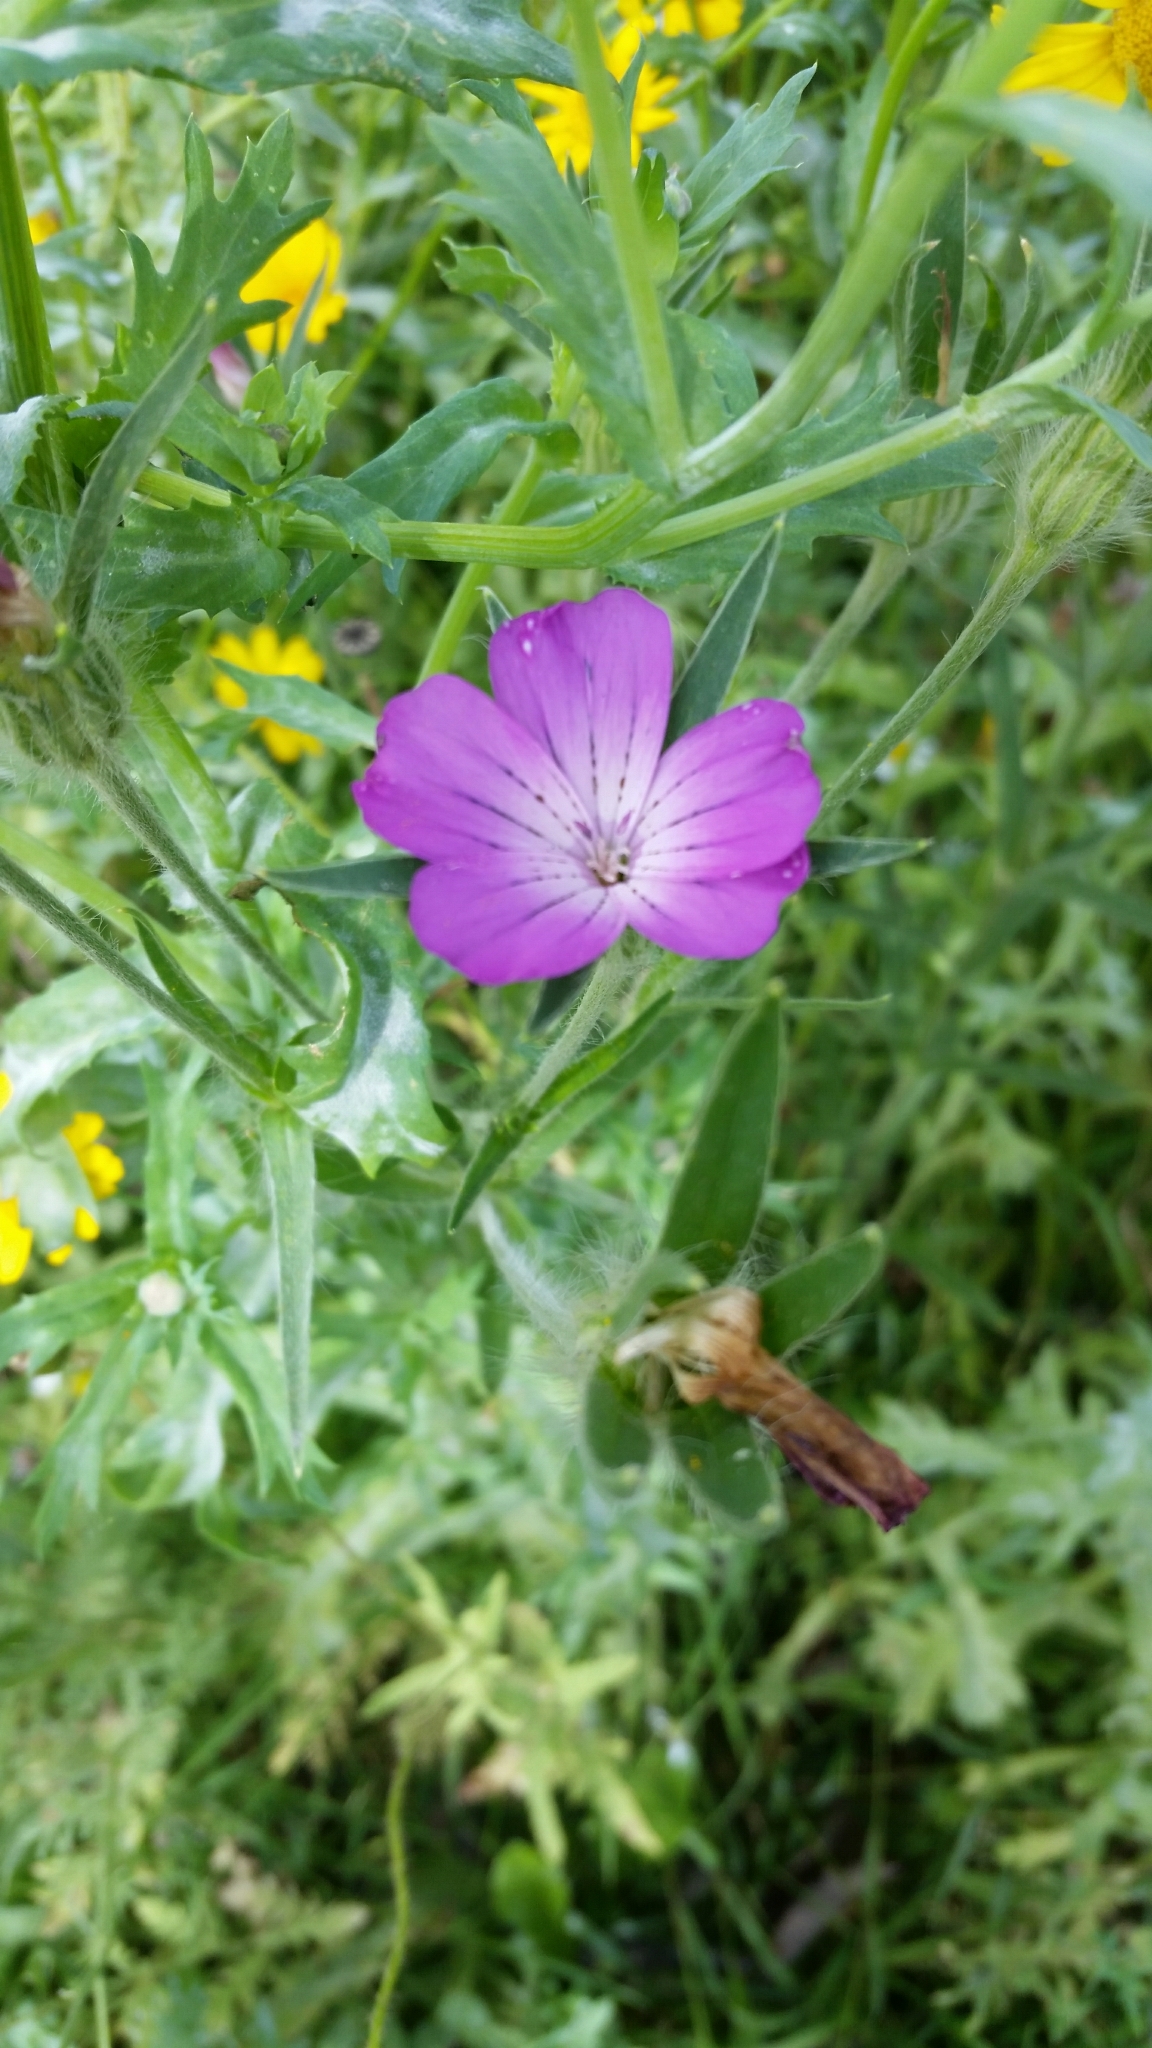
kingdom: Plantae
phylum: Tracheophyta
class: Magnoliopsida
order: Caryophyllales
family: Caryophyllaceae
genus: Agrostemma
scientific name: Agrostemma githago
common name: Common corncockle
